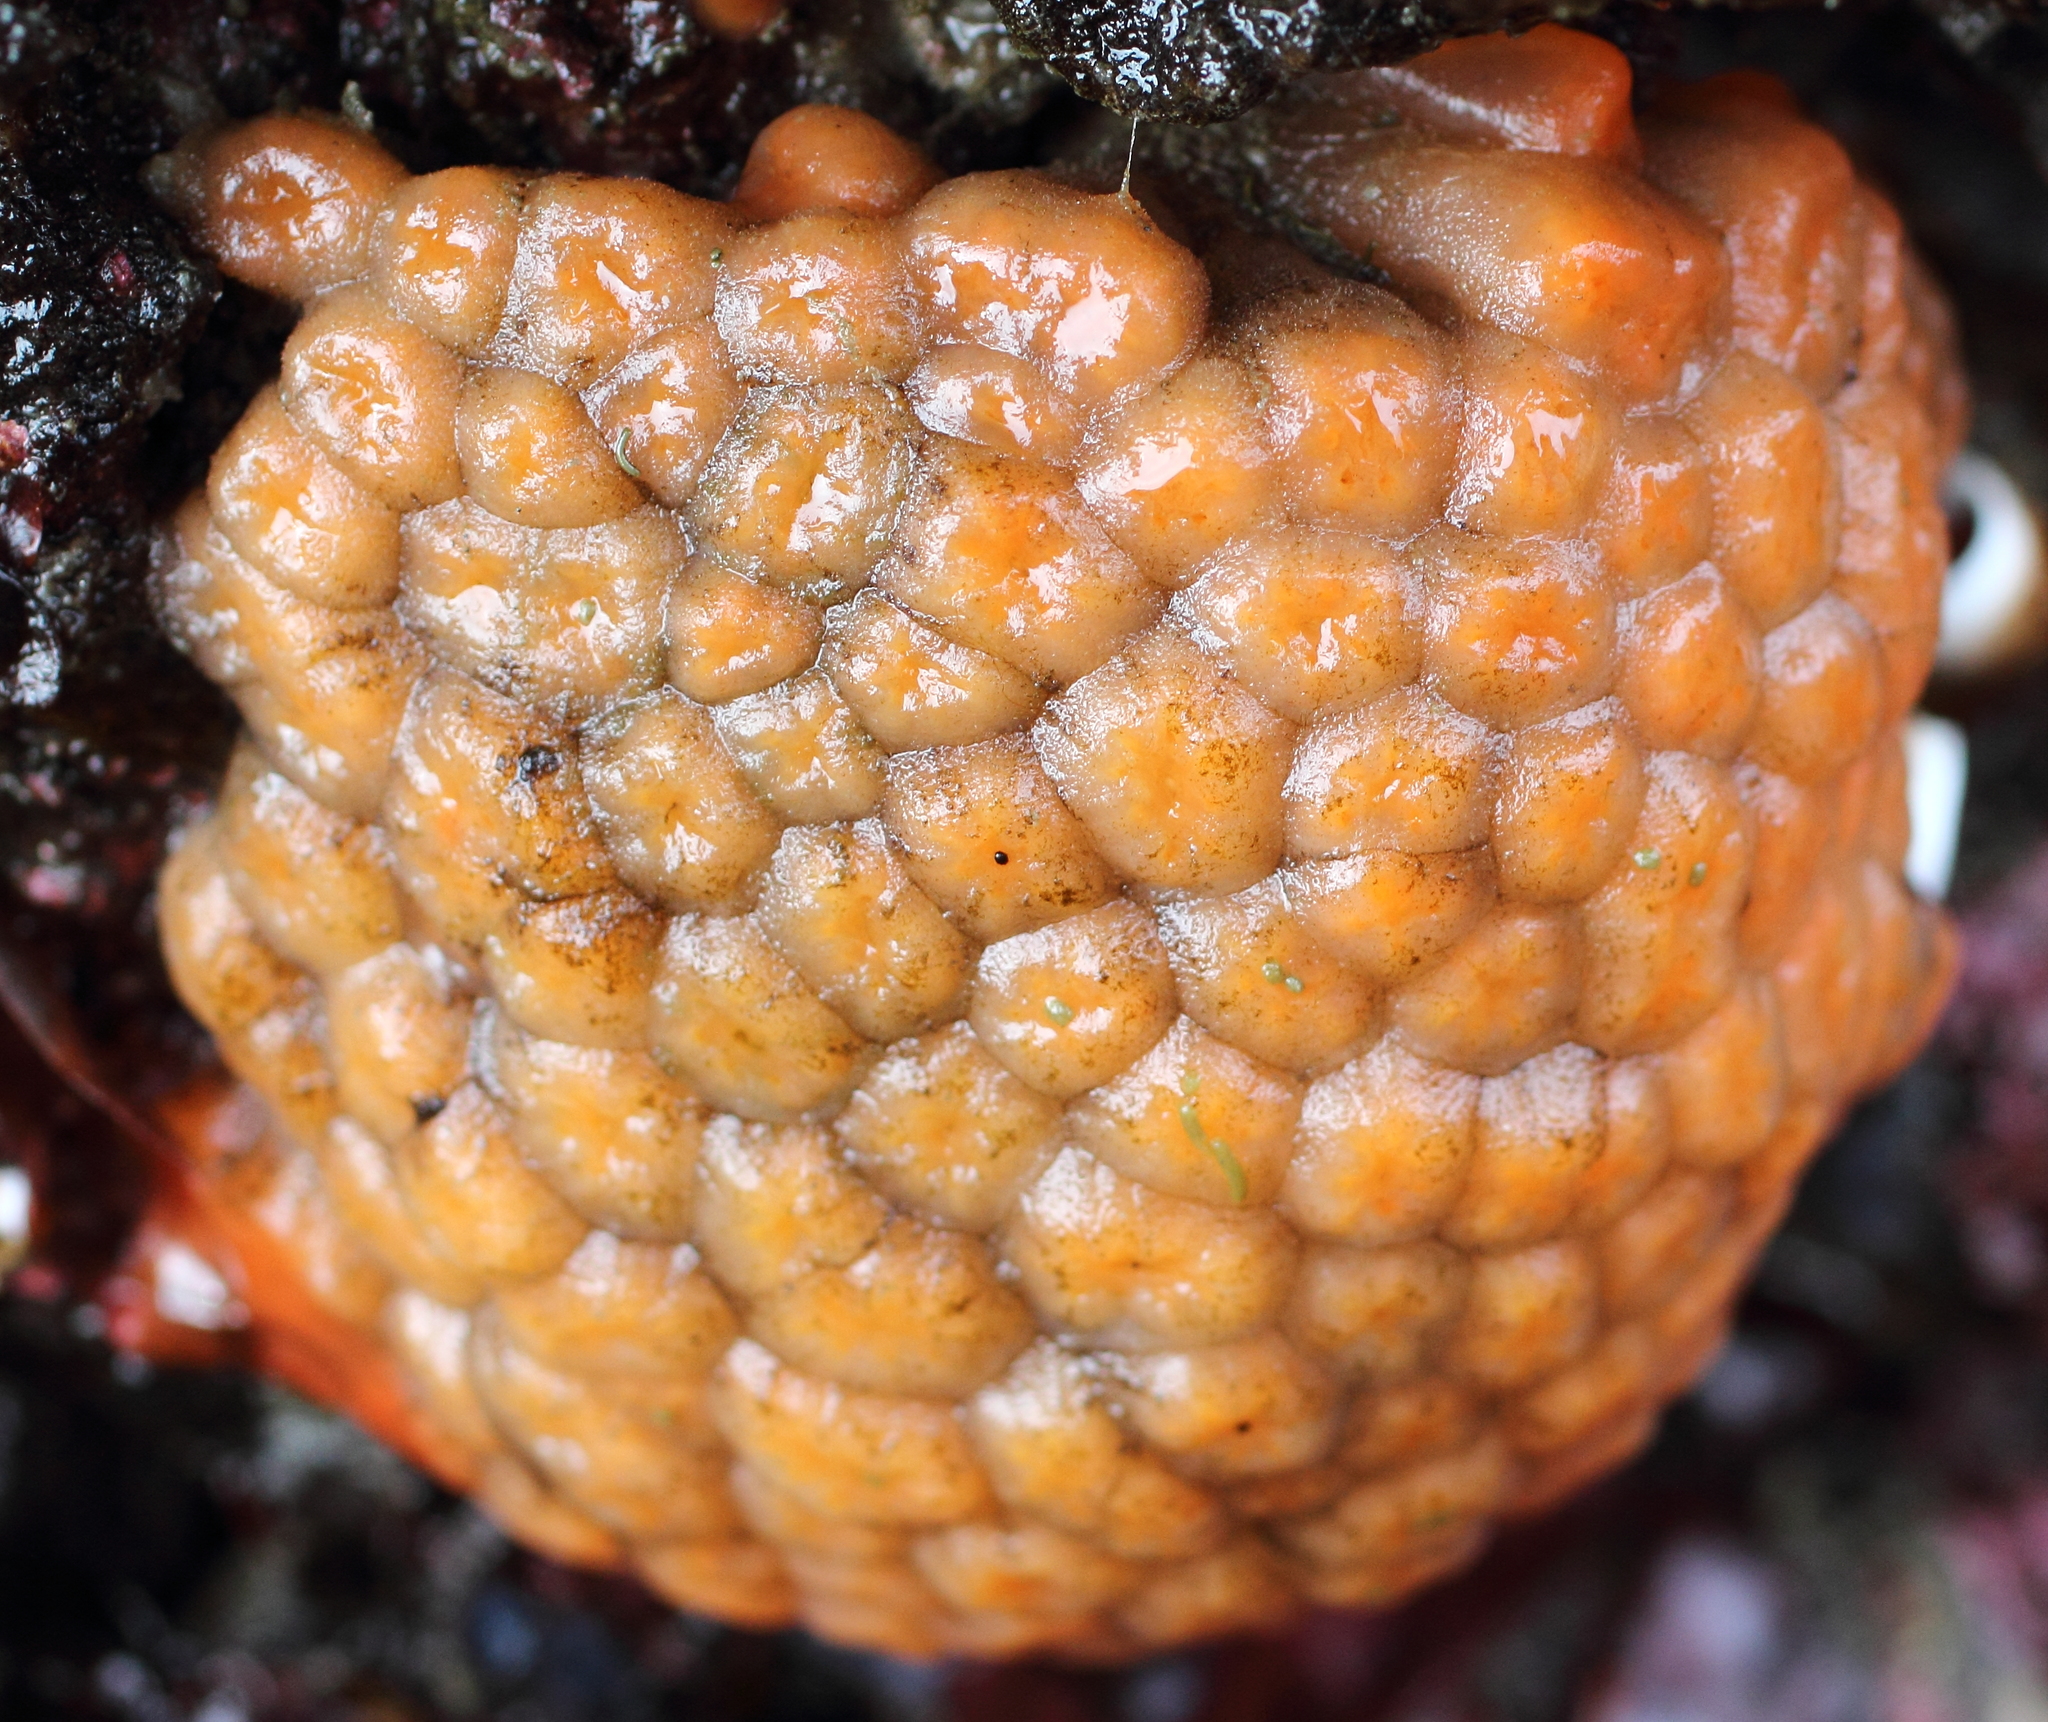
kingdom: Animalia
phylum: Chordata
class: Ascidiacea
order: Aplousobranchia
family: Polyclinidae
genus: Aplidium
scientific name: Aplidium coei
